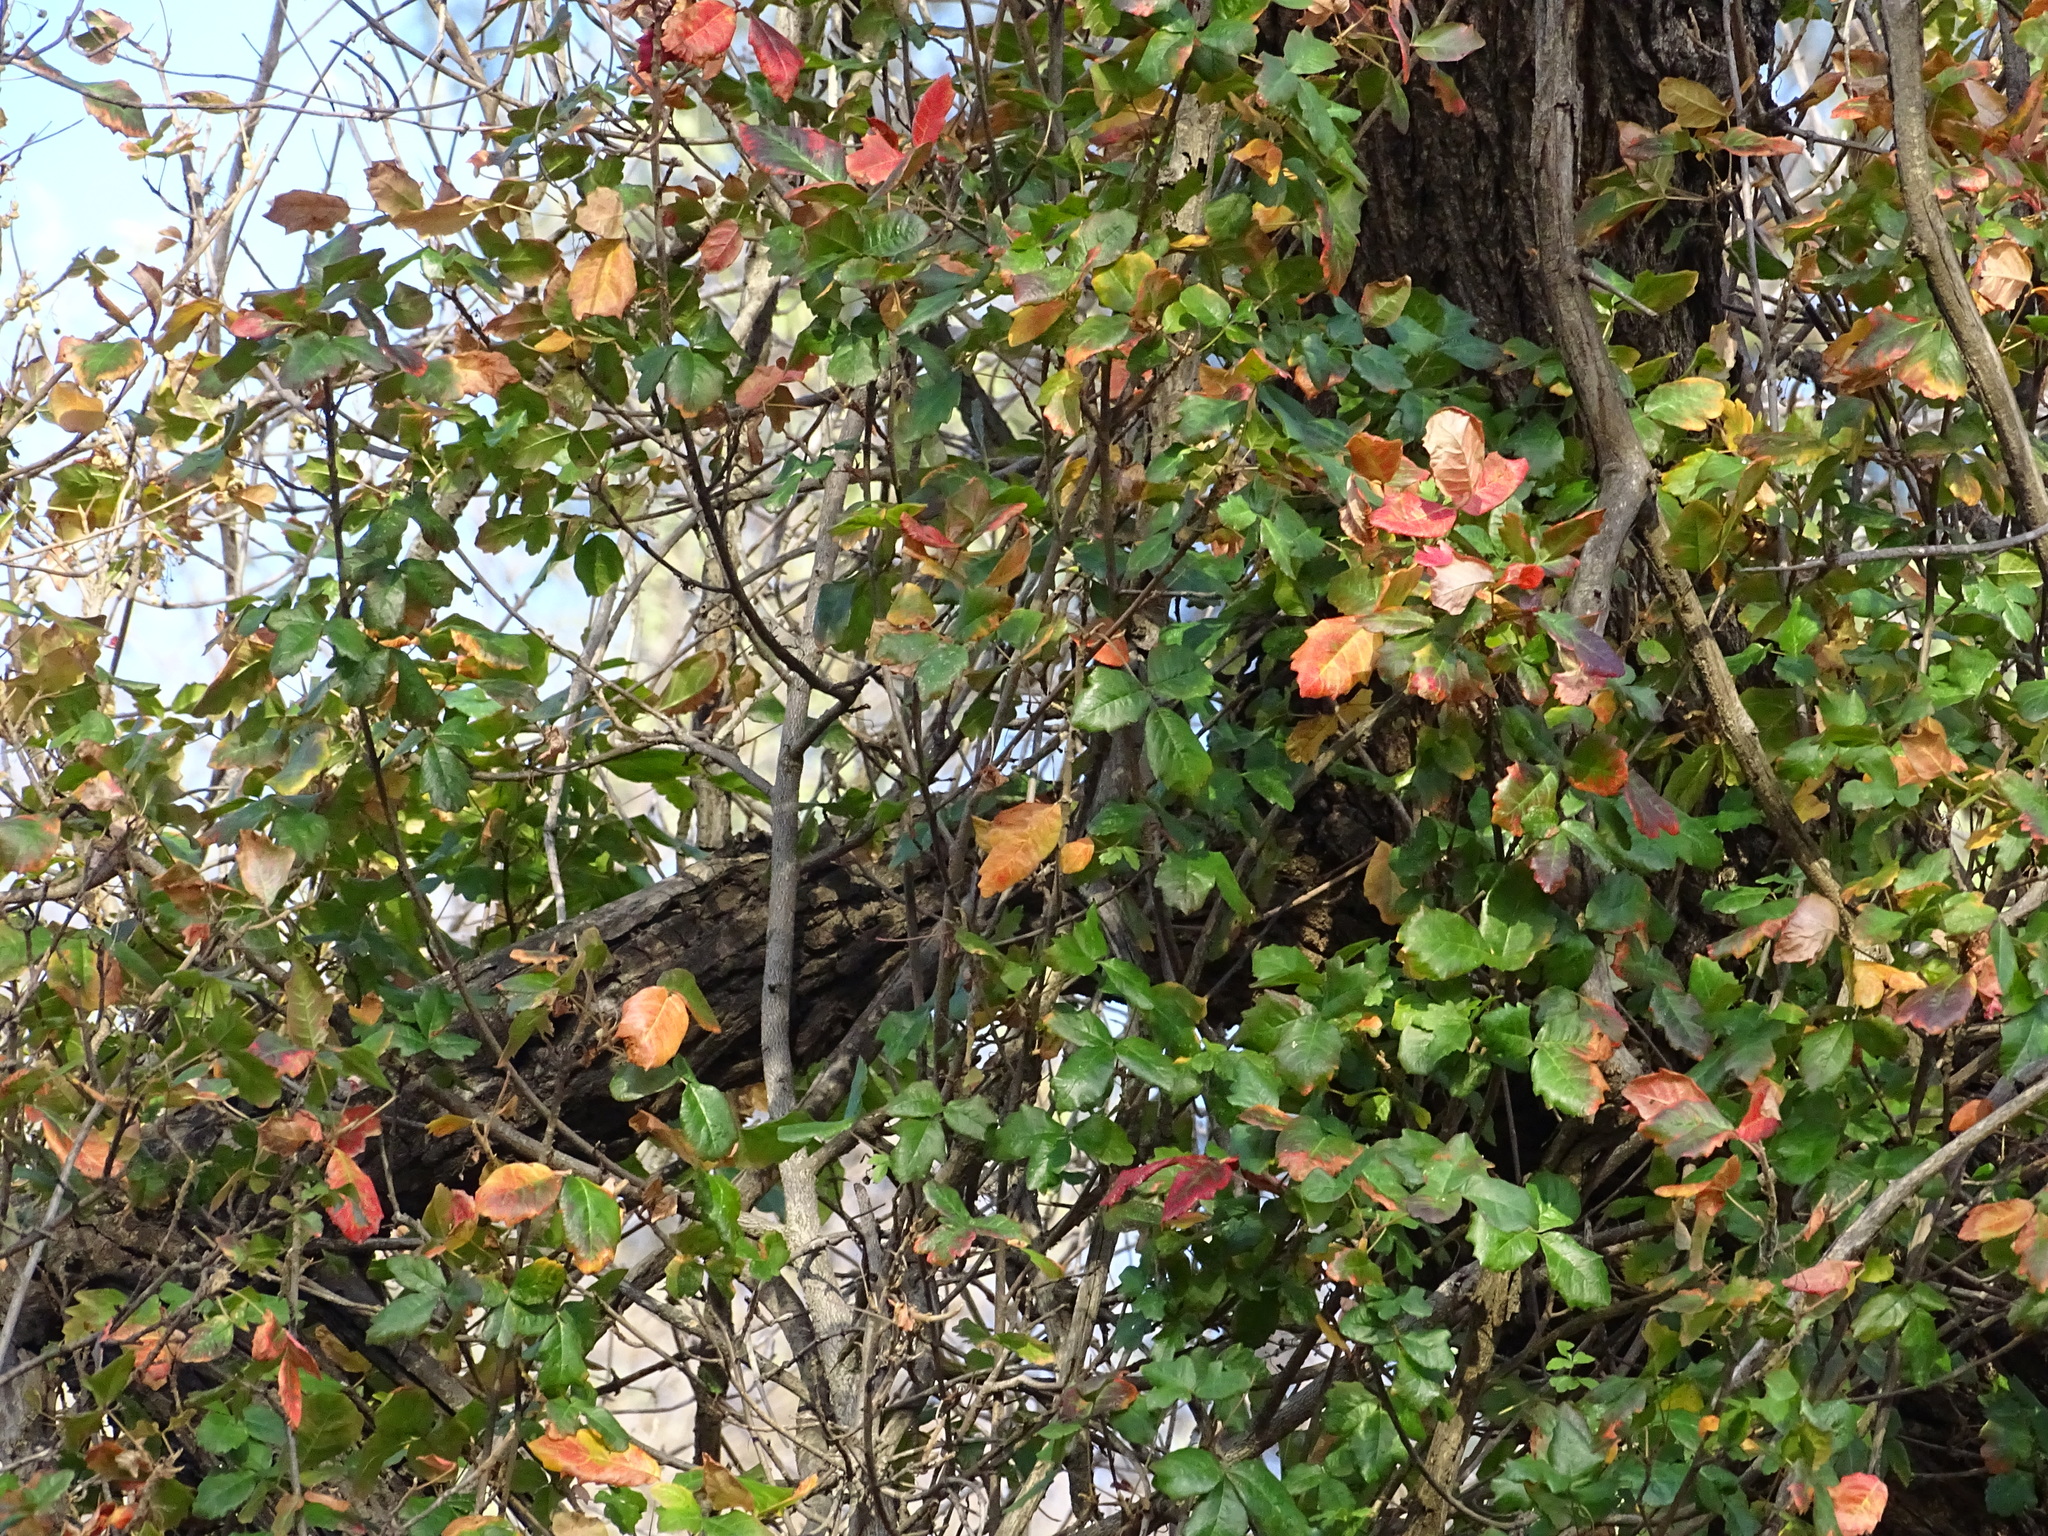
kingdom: Plantae
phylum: Tracheophyta
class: Magnoliopsida
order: Sapindales
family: Anacardiaceae
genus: Toxicodendron
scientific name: Toxicodendron diversilobum
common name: Pacific poison-oak
